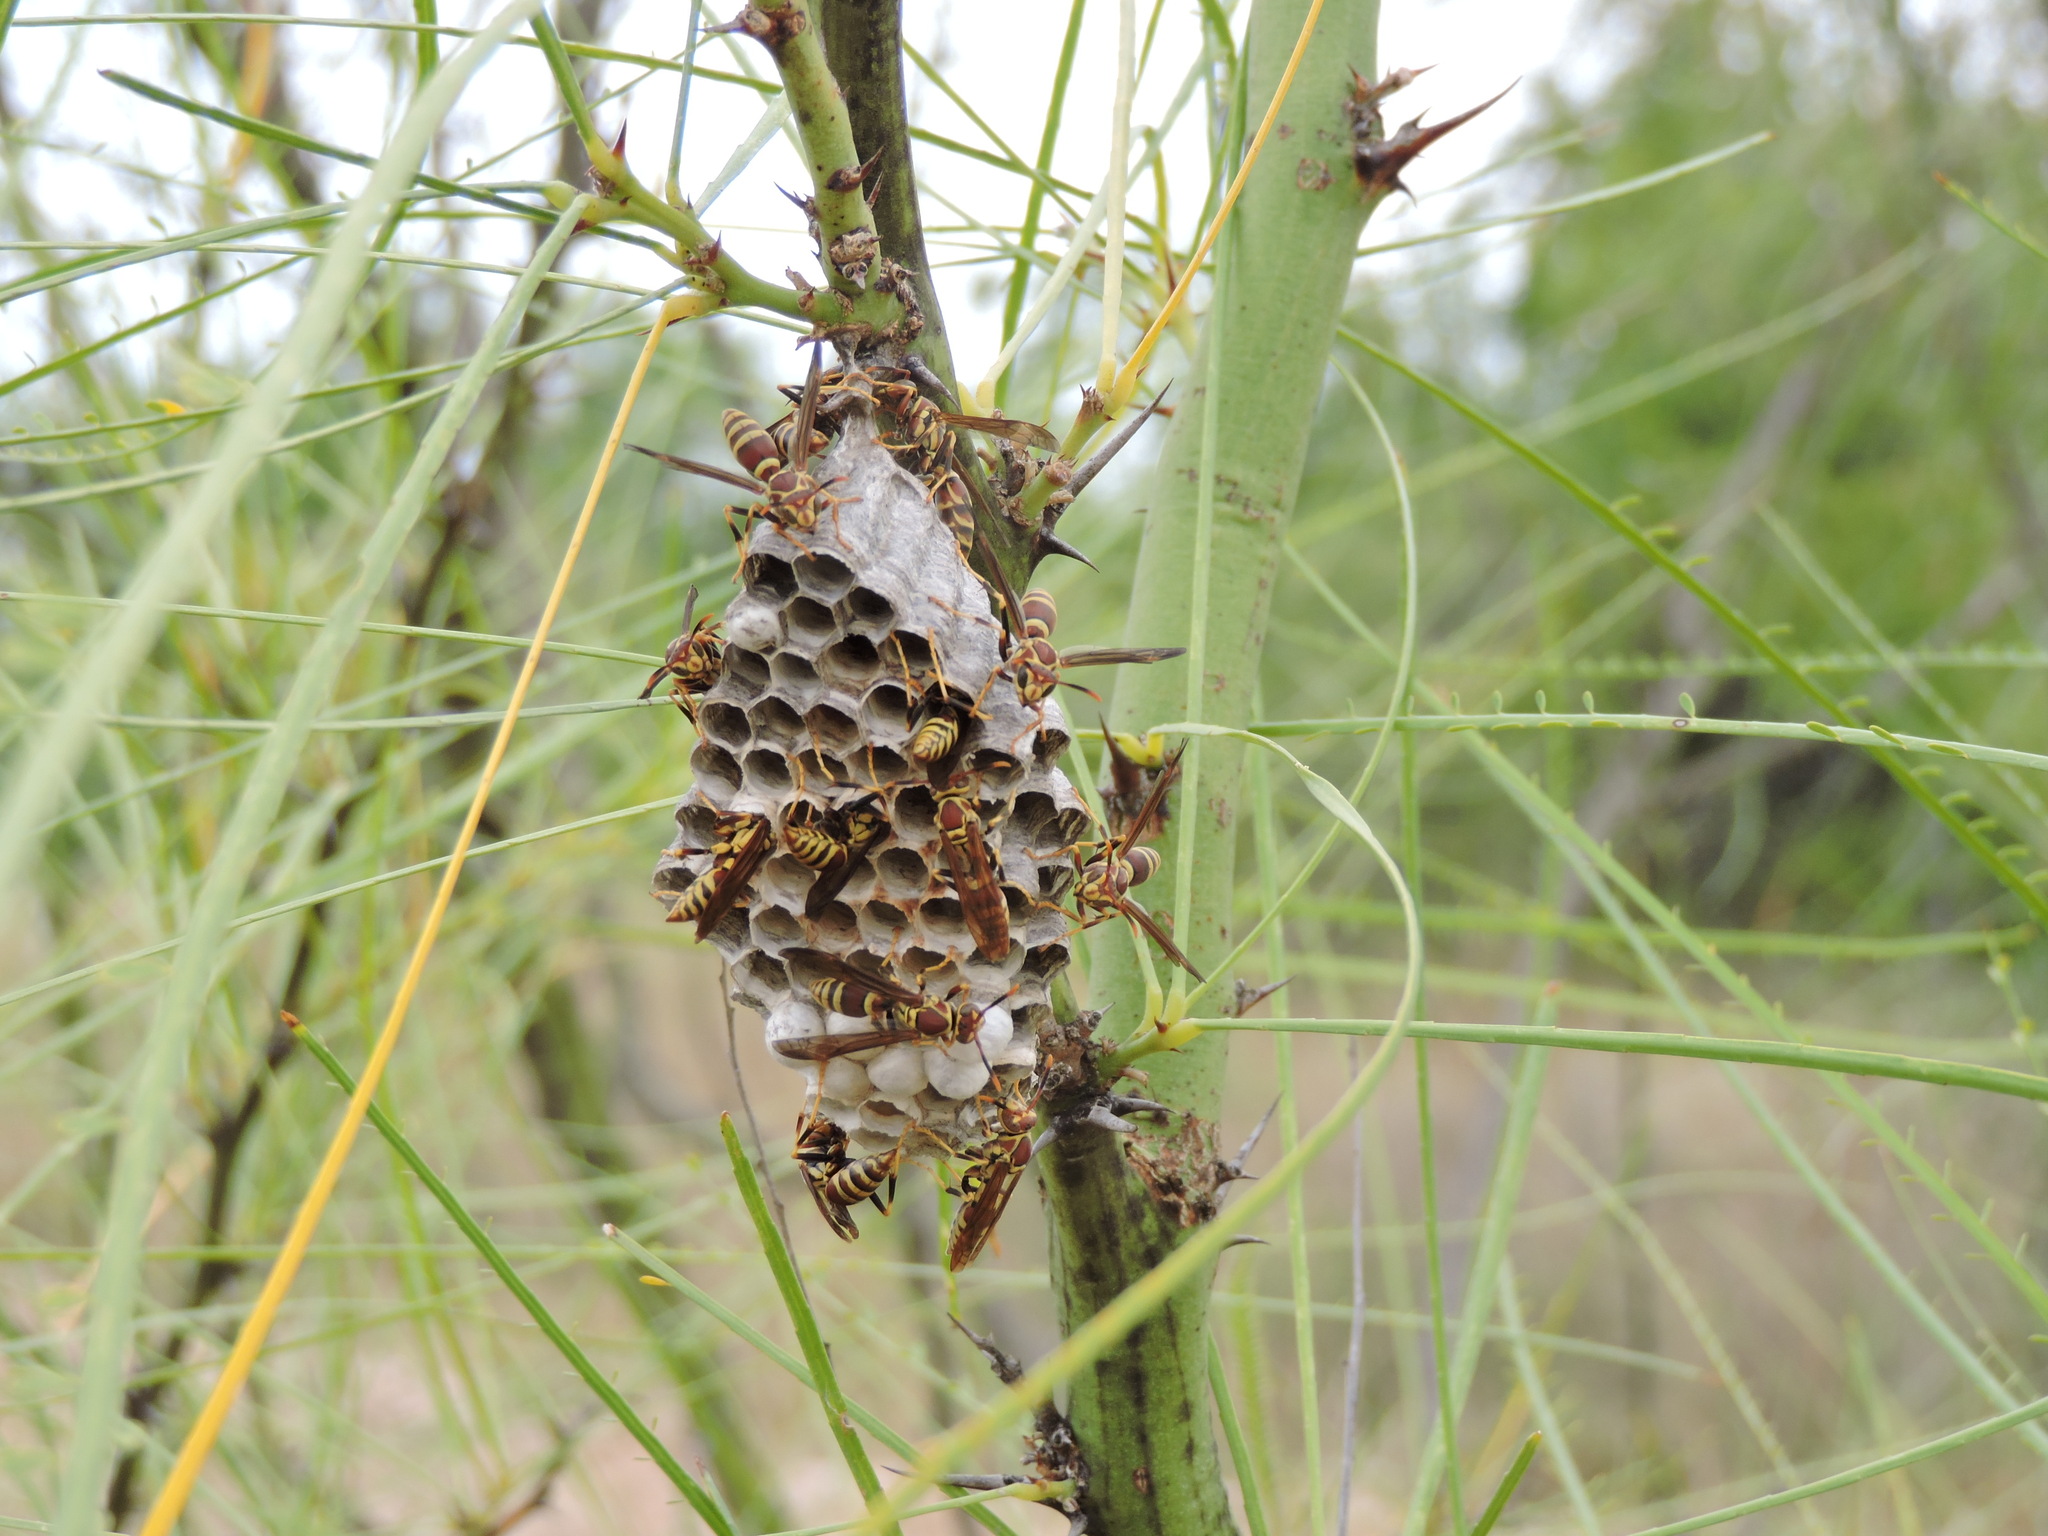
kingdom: Animalia
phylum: Arthropoda
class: Insecta
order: Hymenoptera
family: Eumenidae
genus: Polistes
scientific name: Polistes exclamans
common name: Paper wasp
